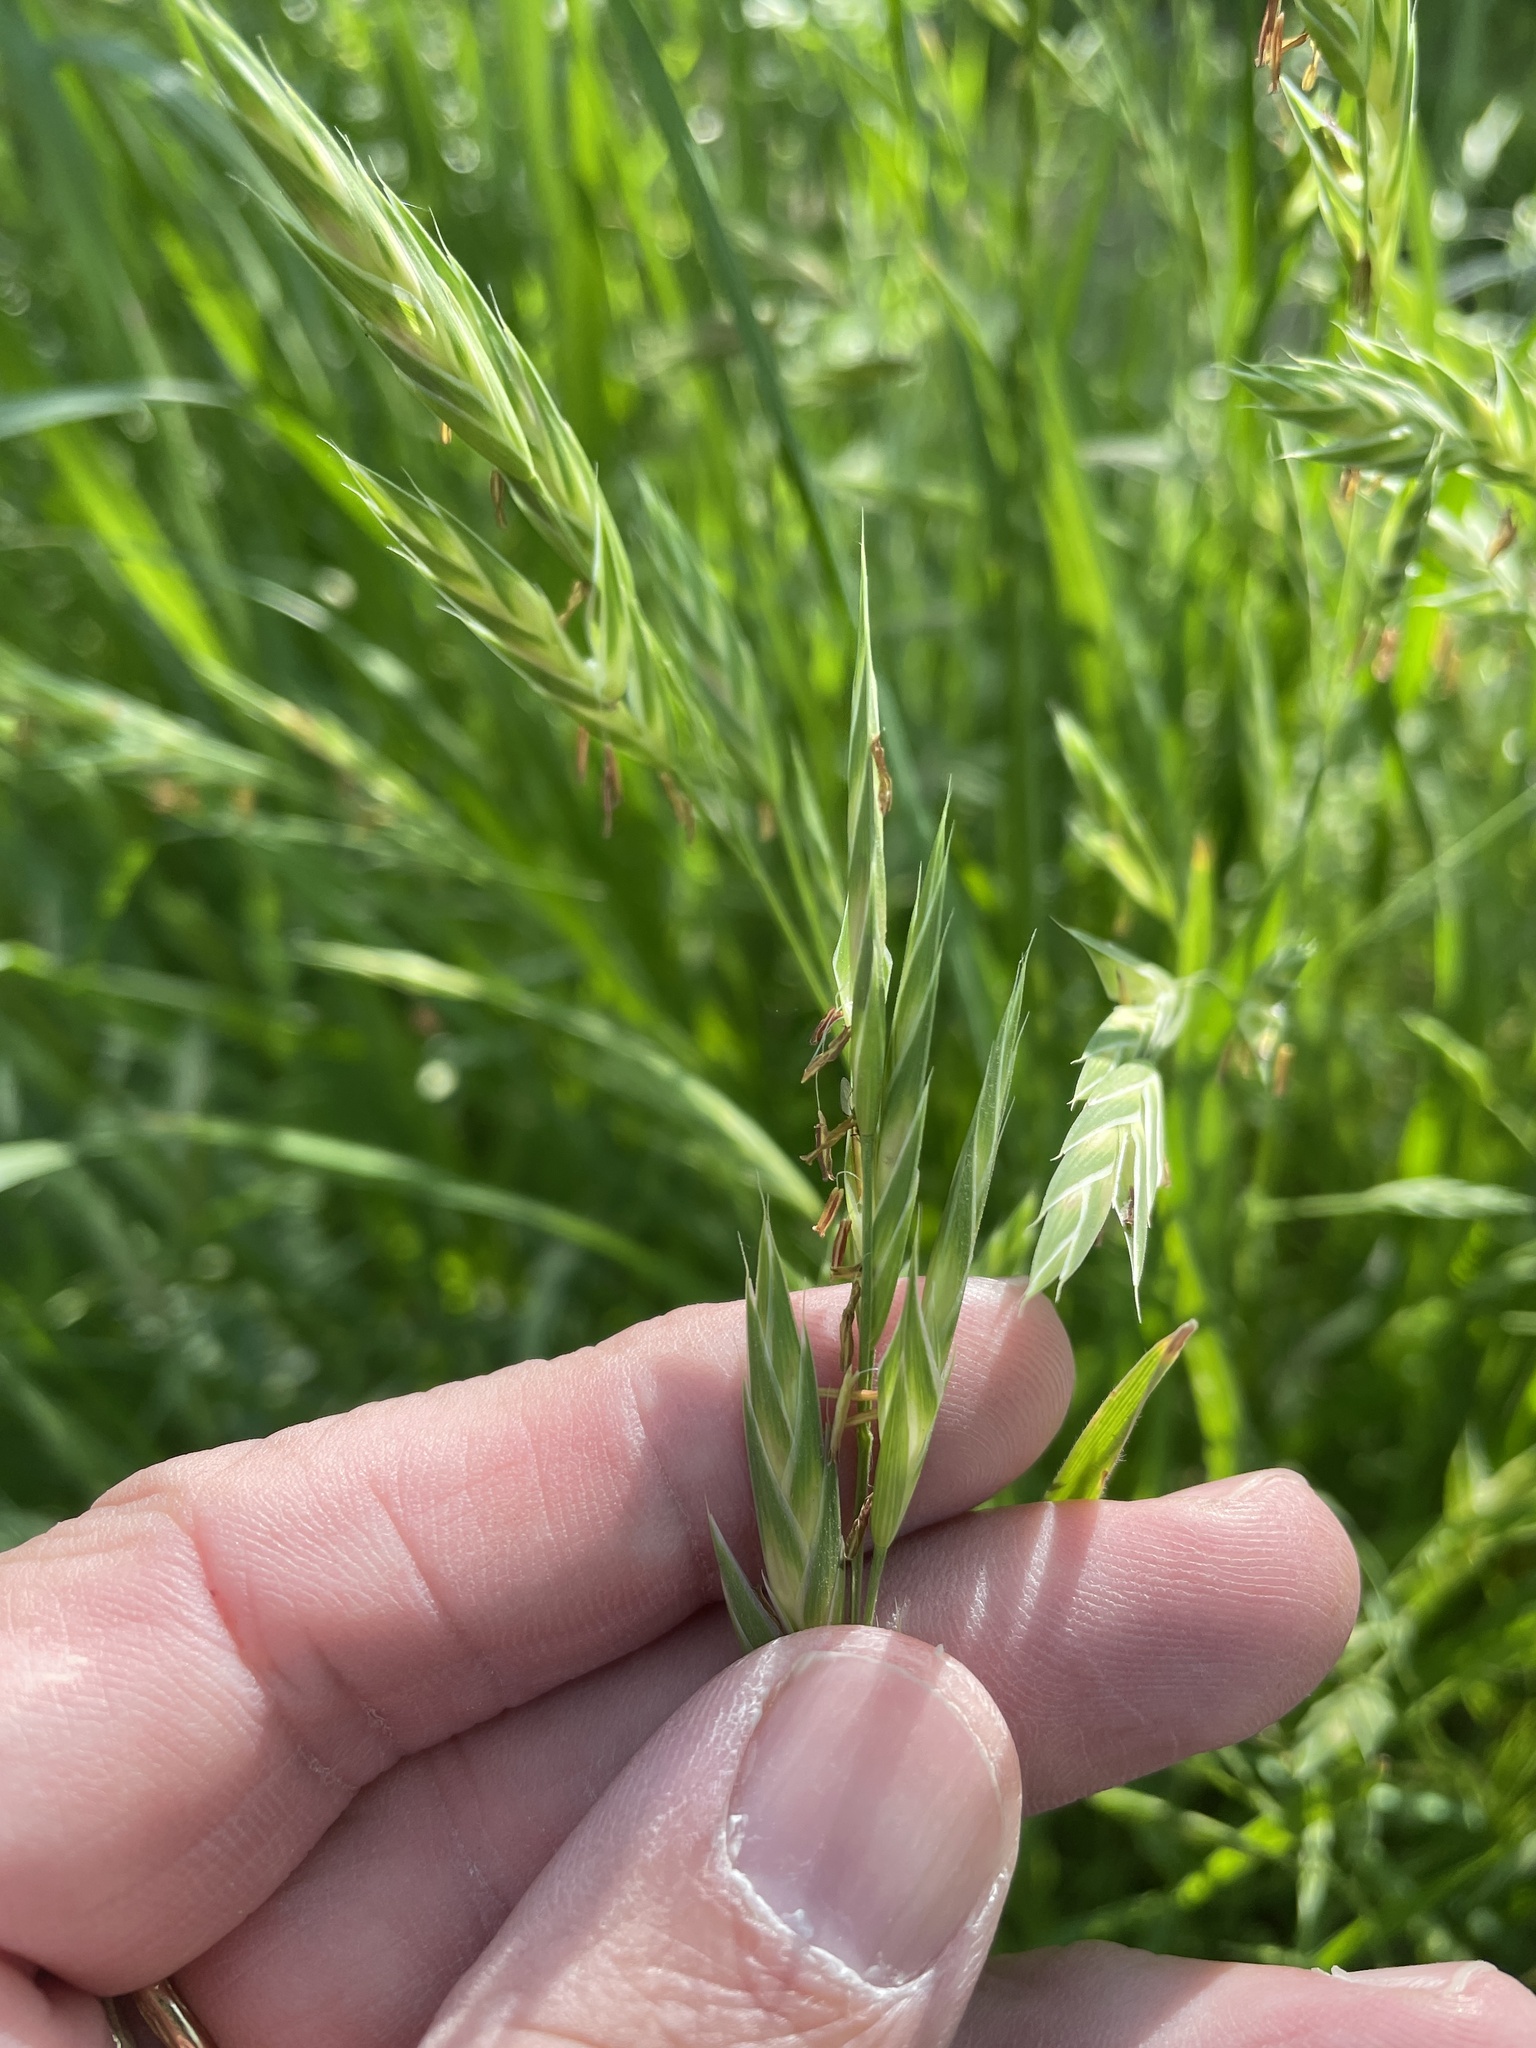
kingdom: Plantae
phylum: Tracheophyta
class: Liliopsida
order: Poales
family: Poaceae
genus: Bromus
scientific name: Bromus catharticus
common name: Rescuegrass
